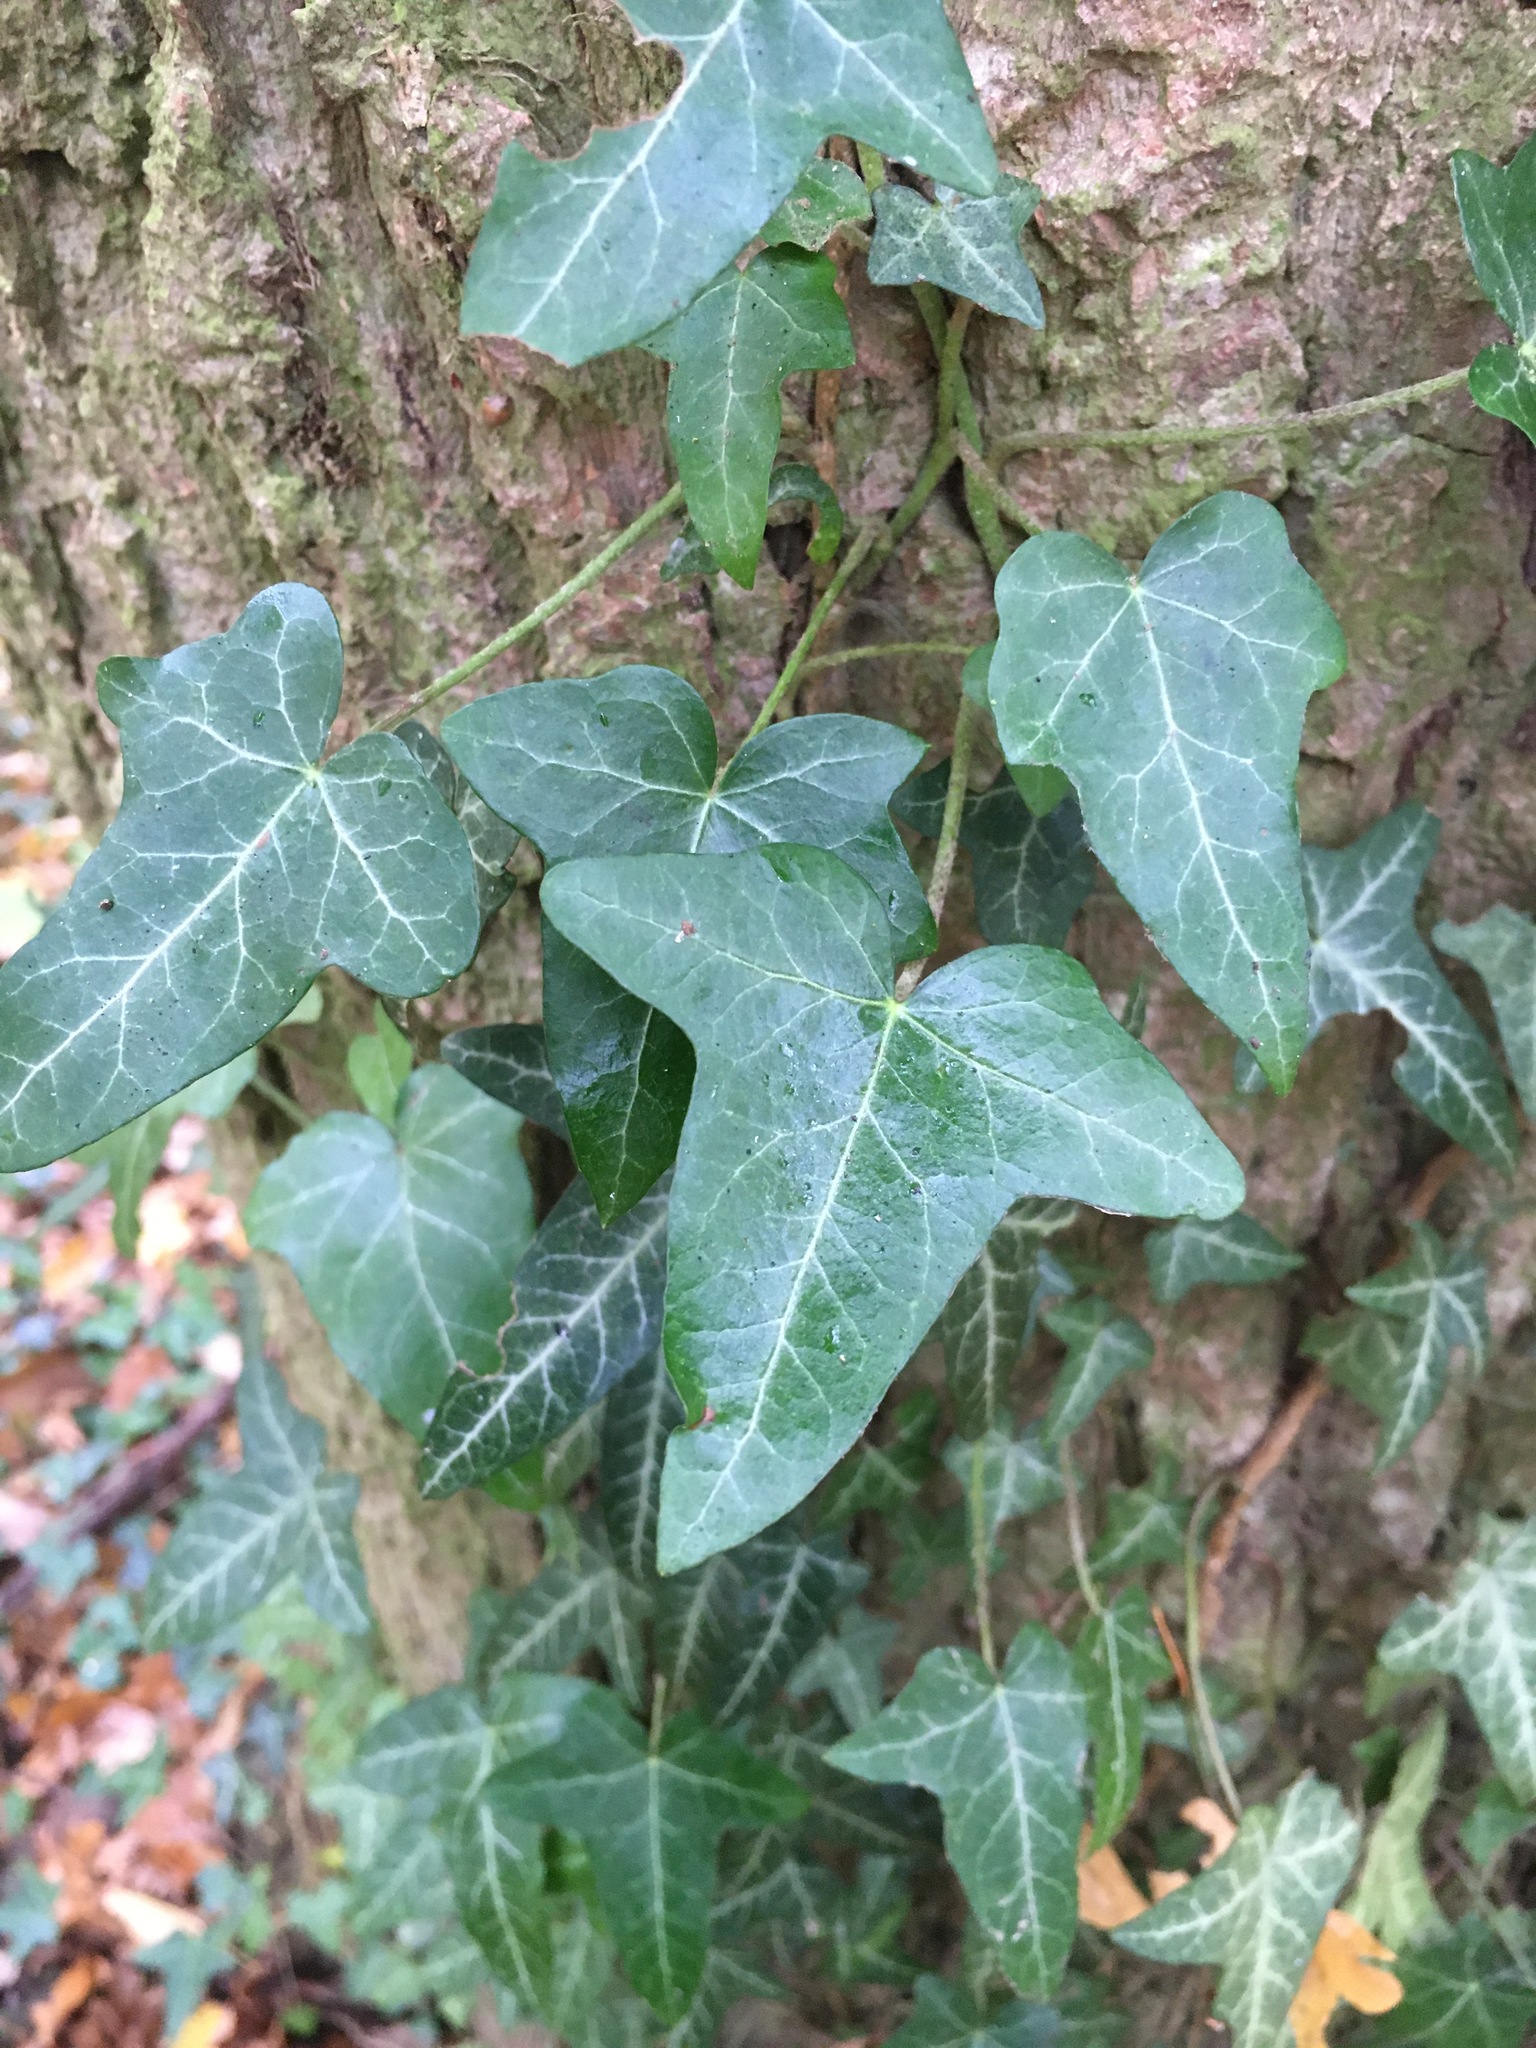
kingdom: Plantae
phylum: Tracheophyta
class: Magnoliopsida
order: Apiales
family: Araliaceae
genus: Hedera
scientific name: Hedera helix
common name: Ivy
